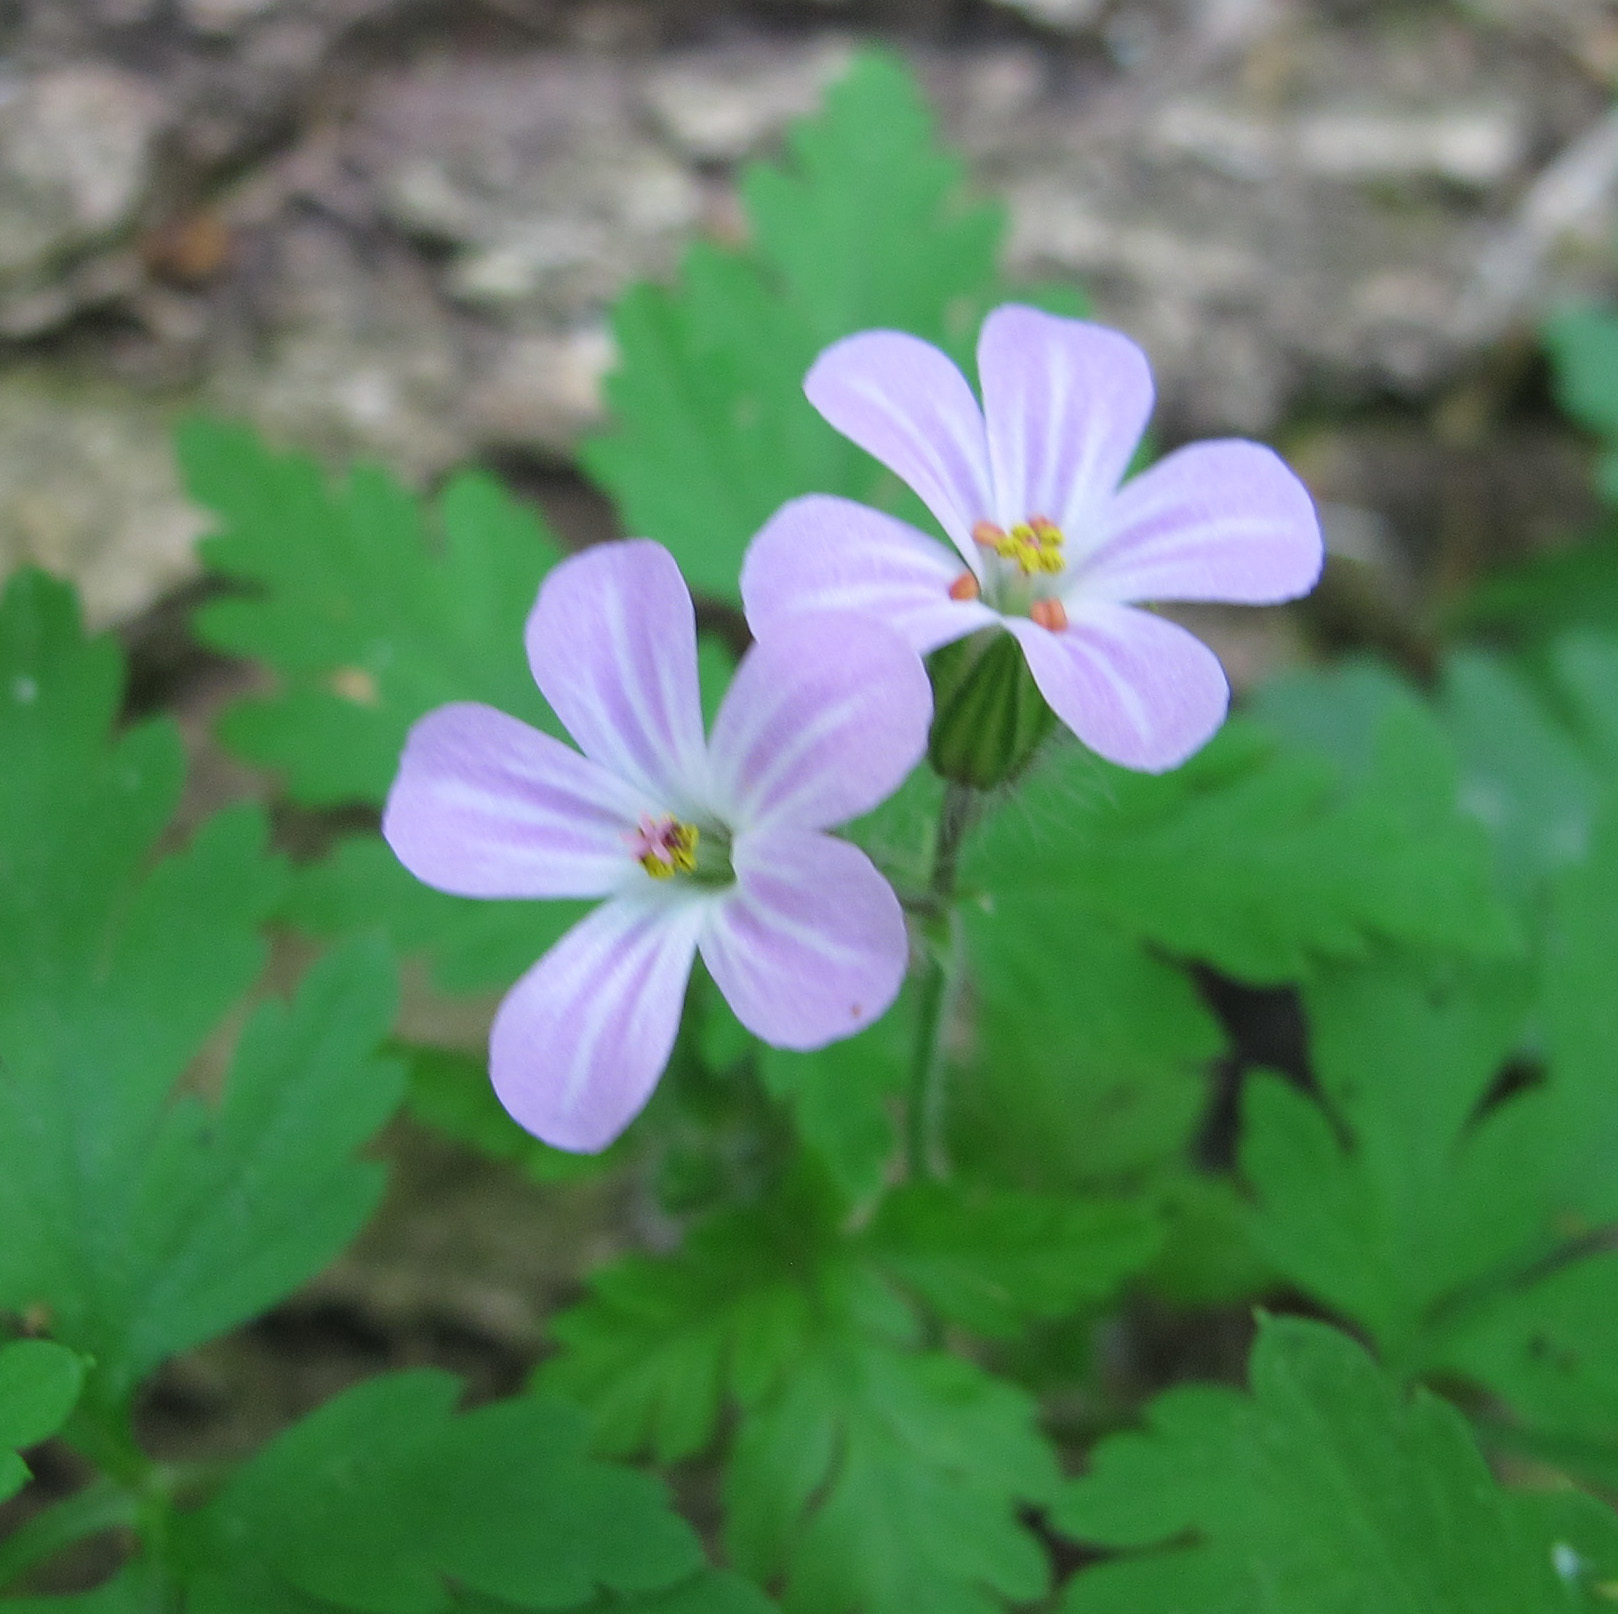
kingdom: Plantae
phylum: Tracheophyta
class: Magnoliopsida
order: Geraniales
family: Geraniaceae
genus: Geranium
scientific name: Geranium robertianum
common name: Herb-robert
